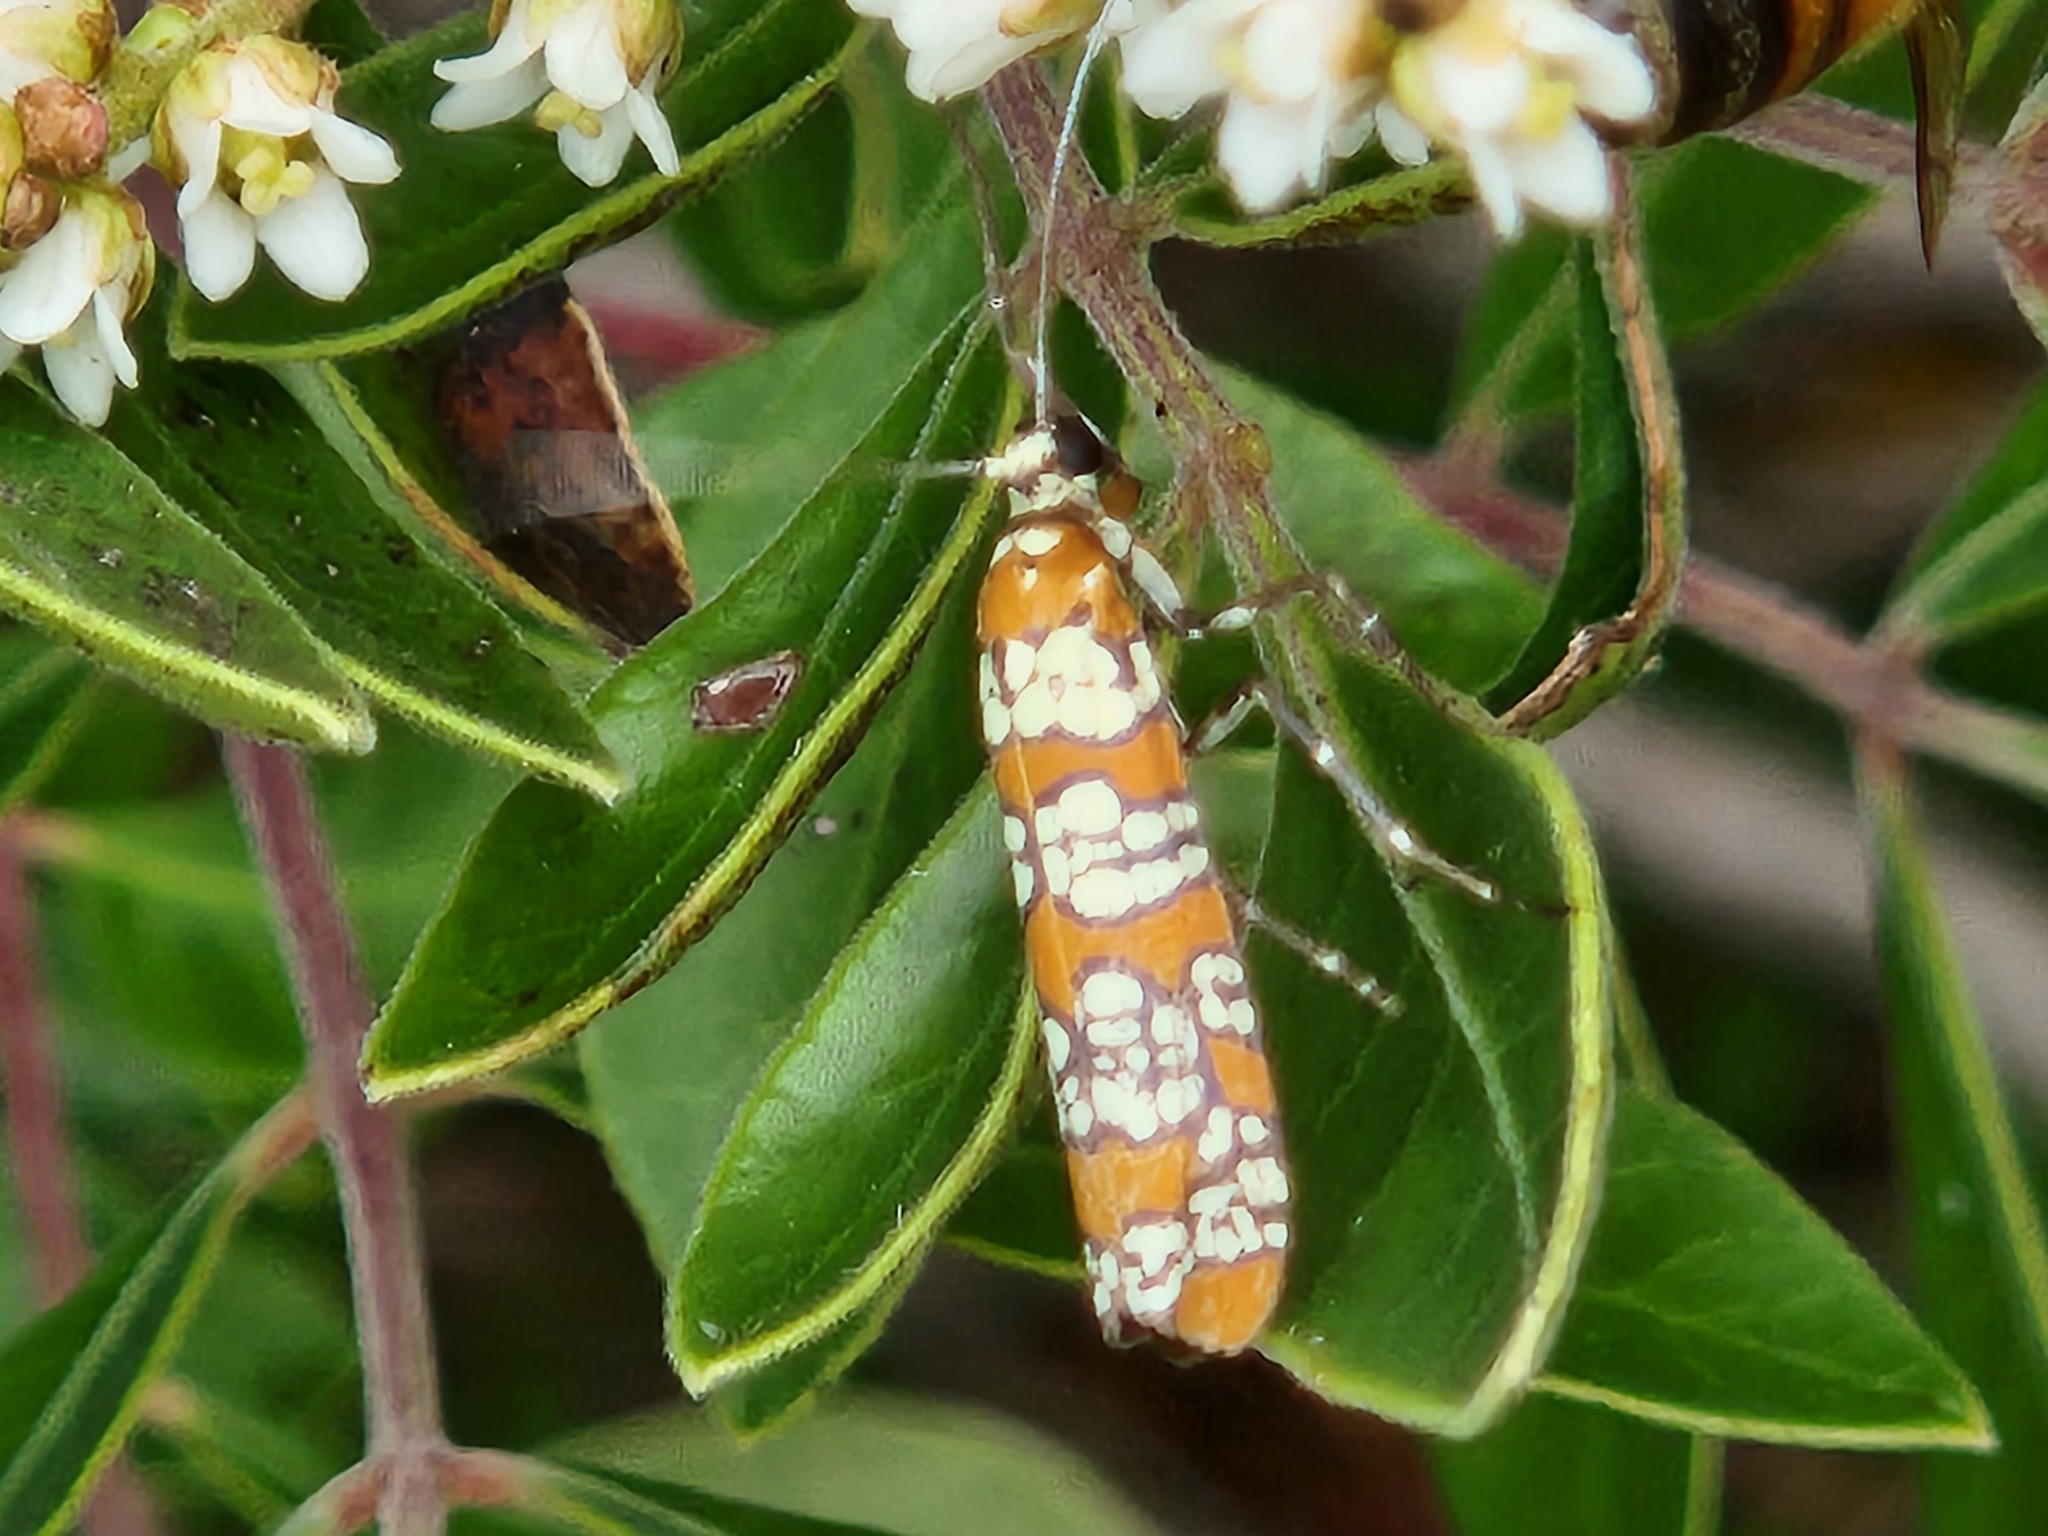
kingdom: Animalia
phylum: Arthropoda
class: Insecta
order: Lepidoptera
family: Attevidae
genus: Atteva
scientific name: Atteva punctella
